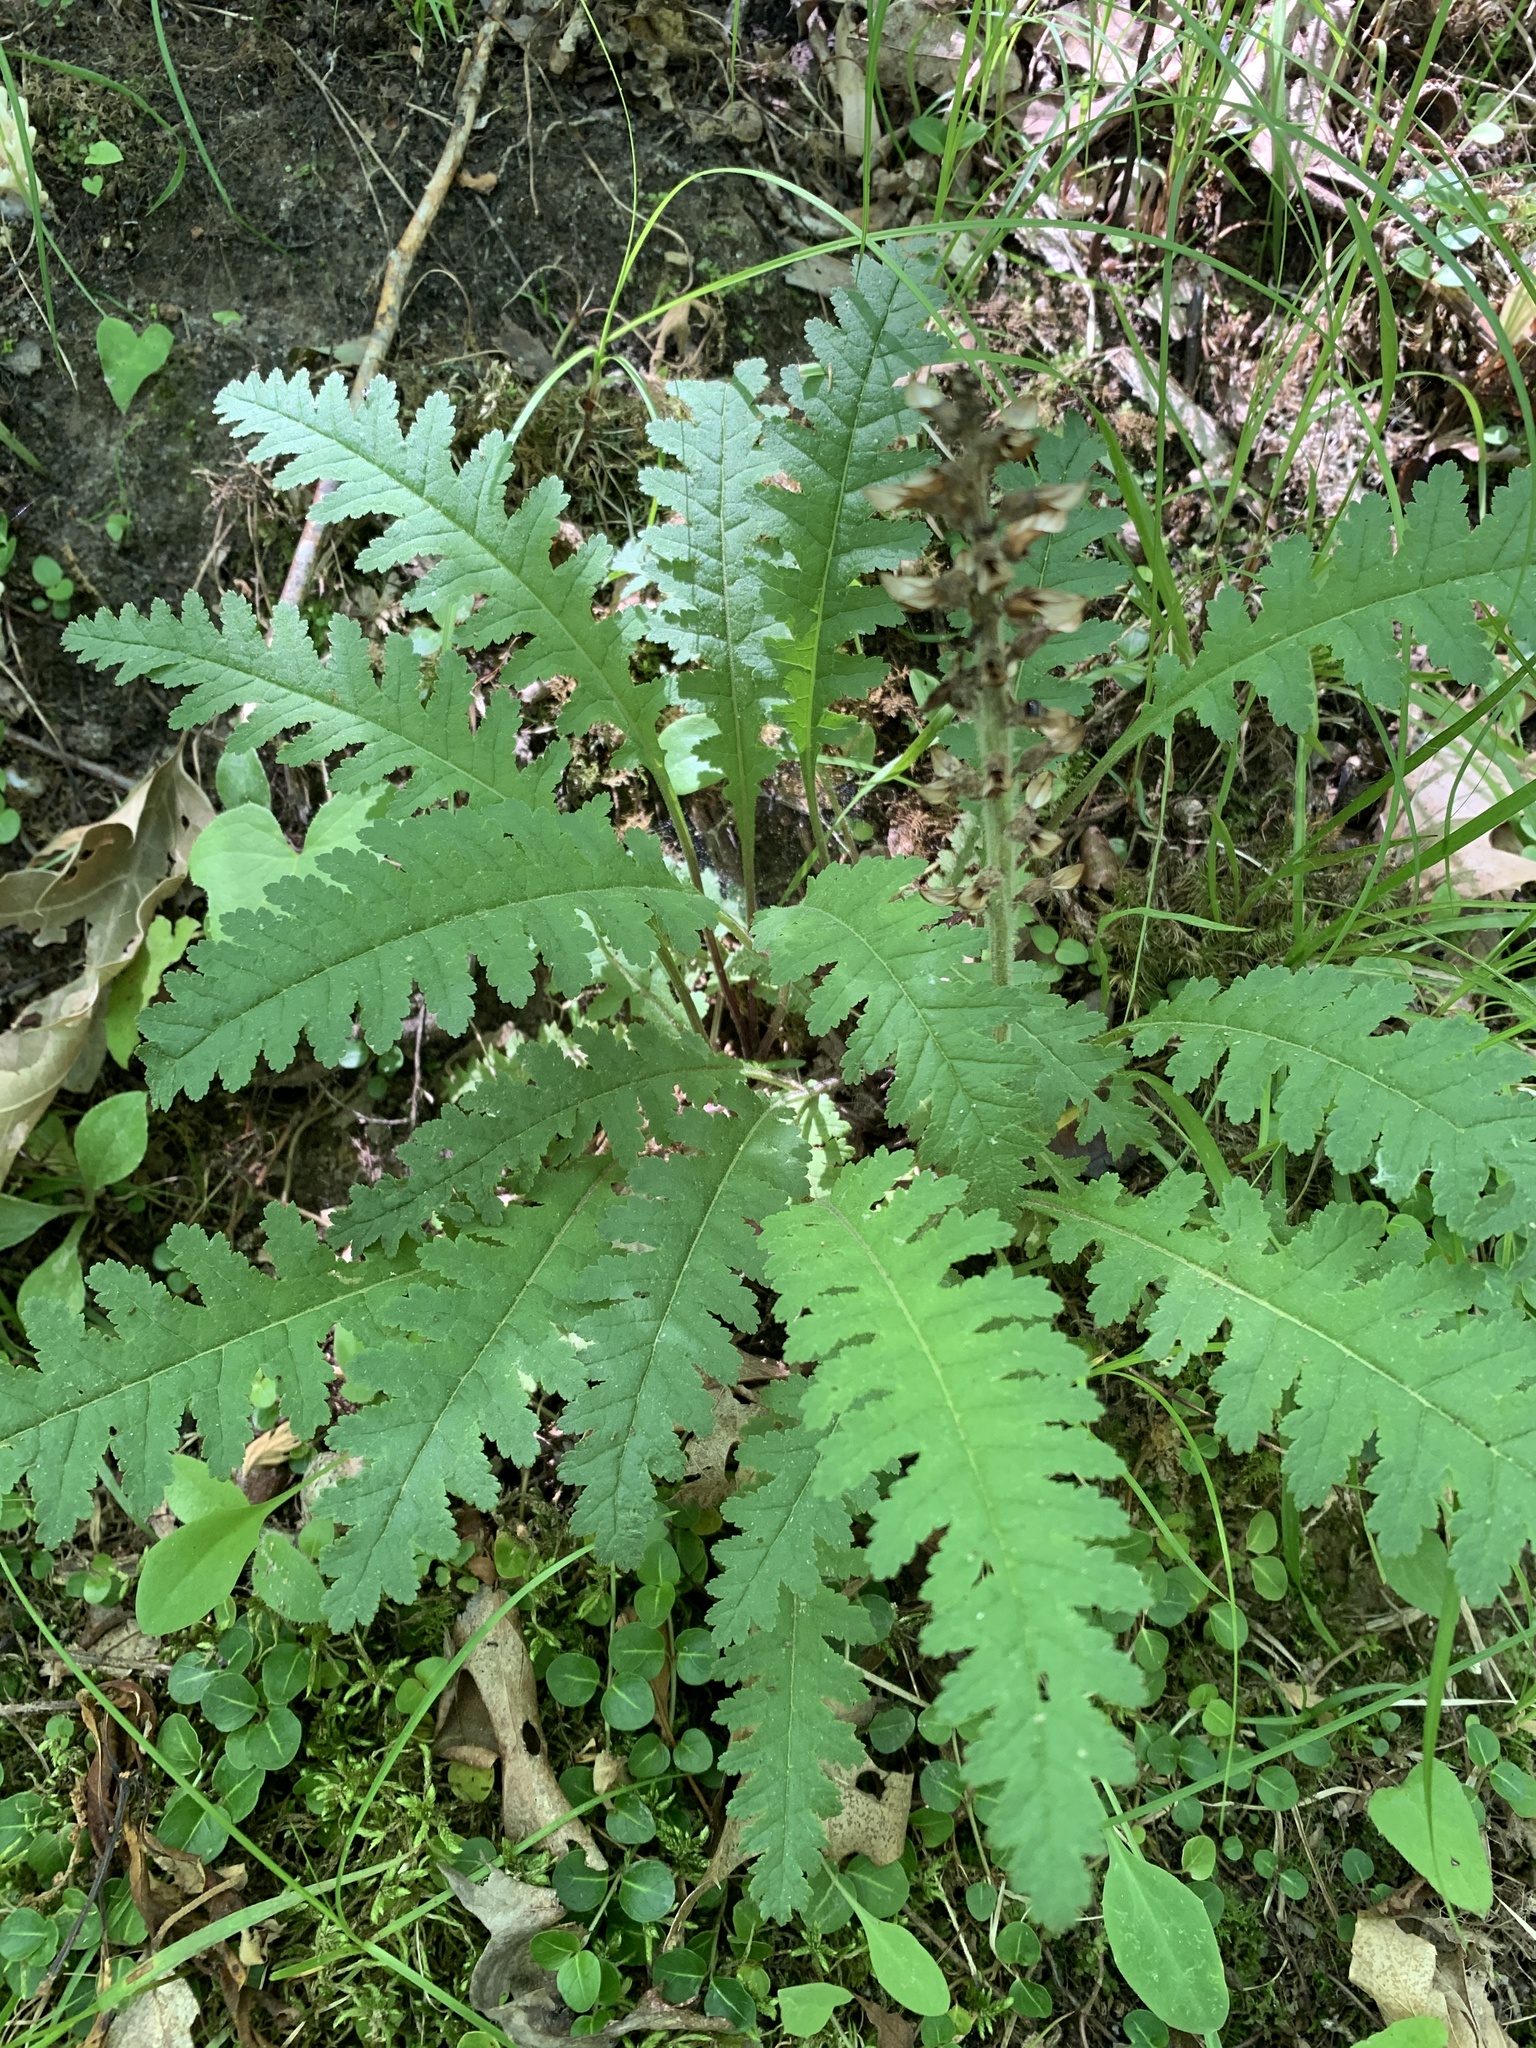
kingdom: Plantae
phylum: Tracheophyta
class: Magnoliopsida
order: Lamiales
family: Orobanchaceae
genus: Pedicularis
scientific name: Pedicularis canadensis
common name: Early lousewort
